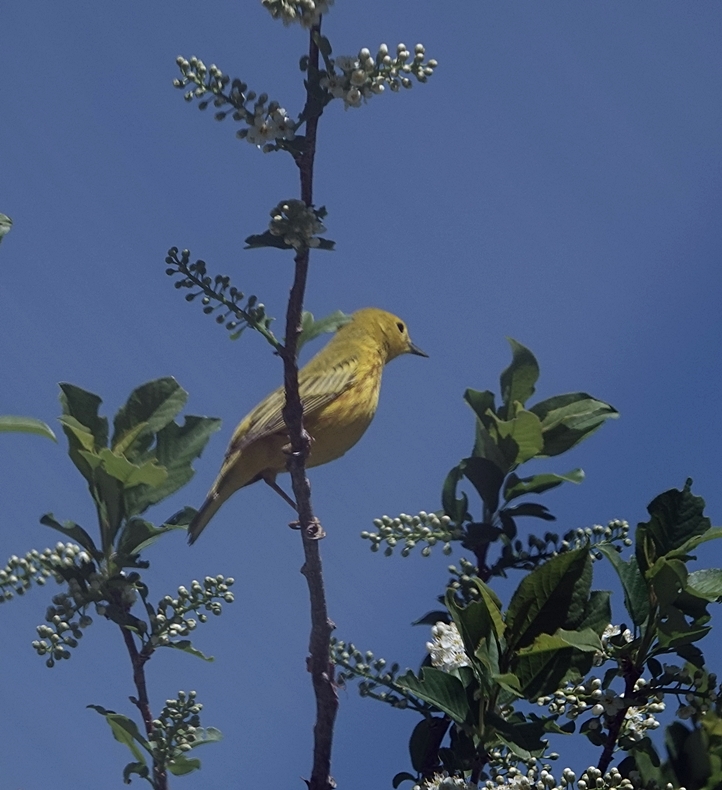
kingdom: Animalia
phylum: Chordata
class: Aves
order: Passeriformes
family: Parulidae
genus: Setophaga
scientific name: Setophaga petechia
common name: Yellow warbler
